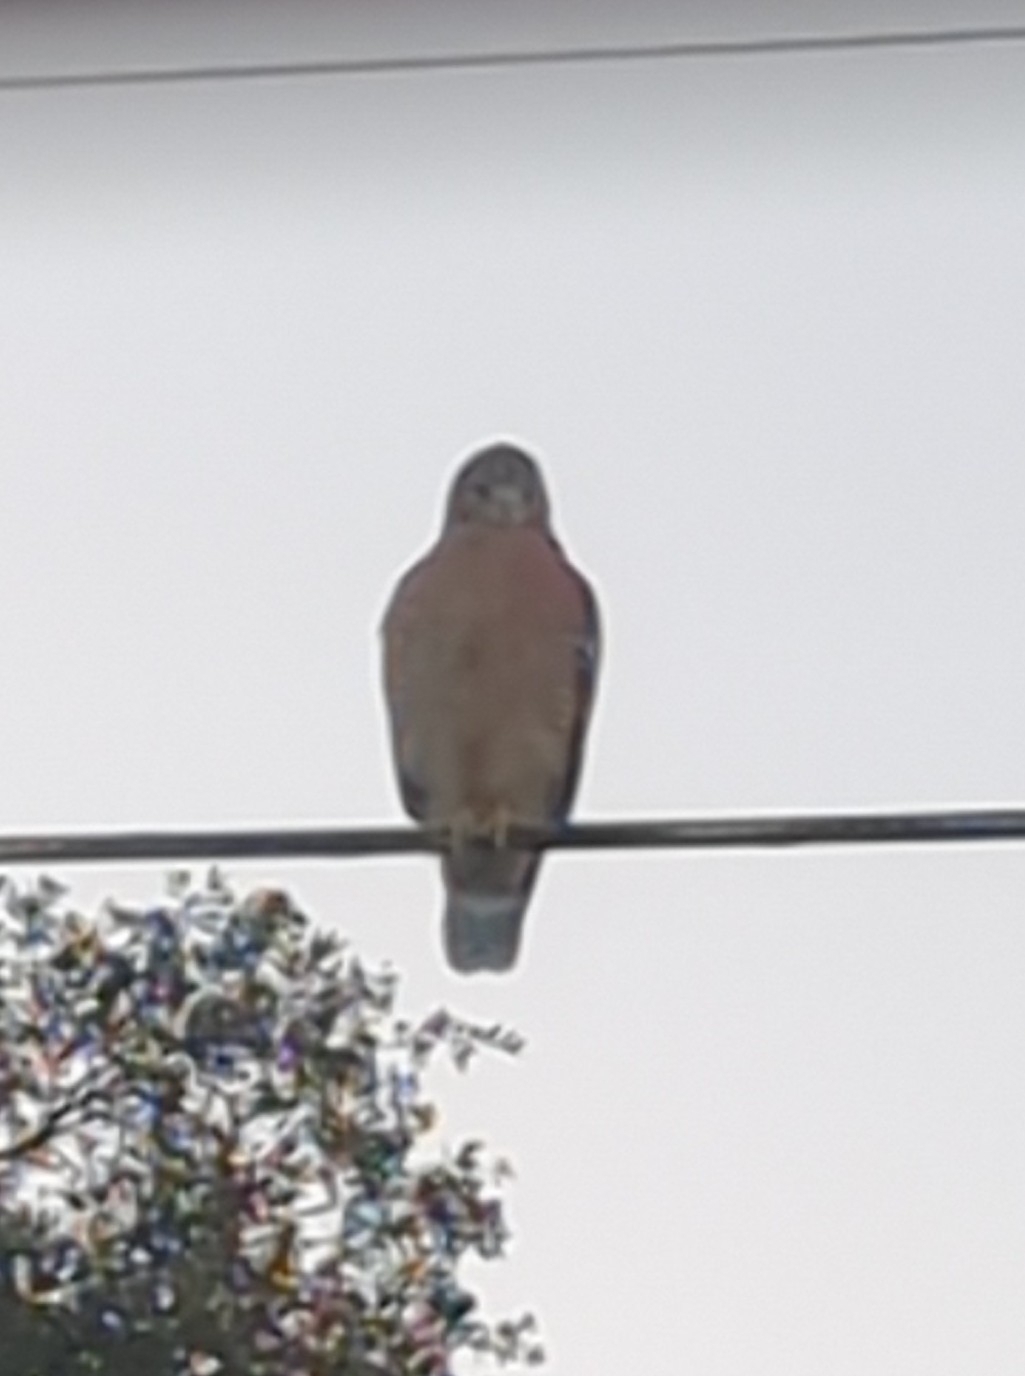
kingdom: Animalia
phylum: Chordata
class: Aves
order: Accipitriformes
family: Accipitridae
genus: Buteo
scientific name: Buteo lineatus
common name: Red-shouldered hawk
